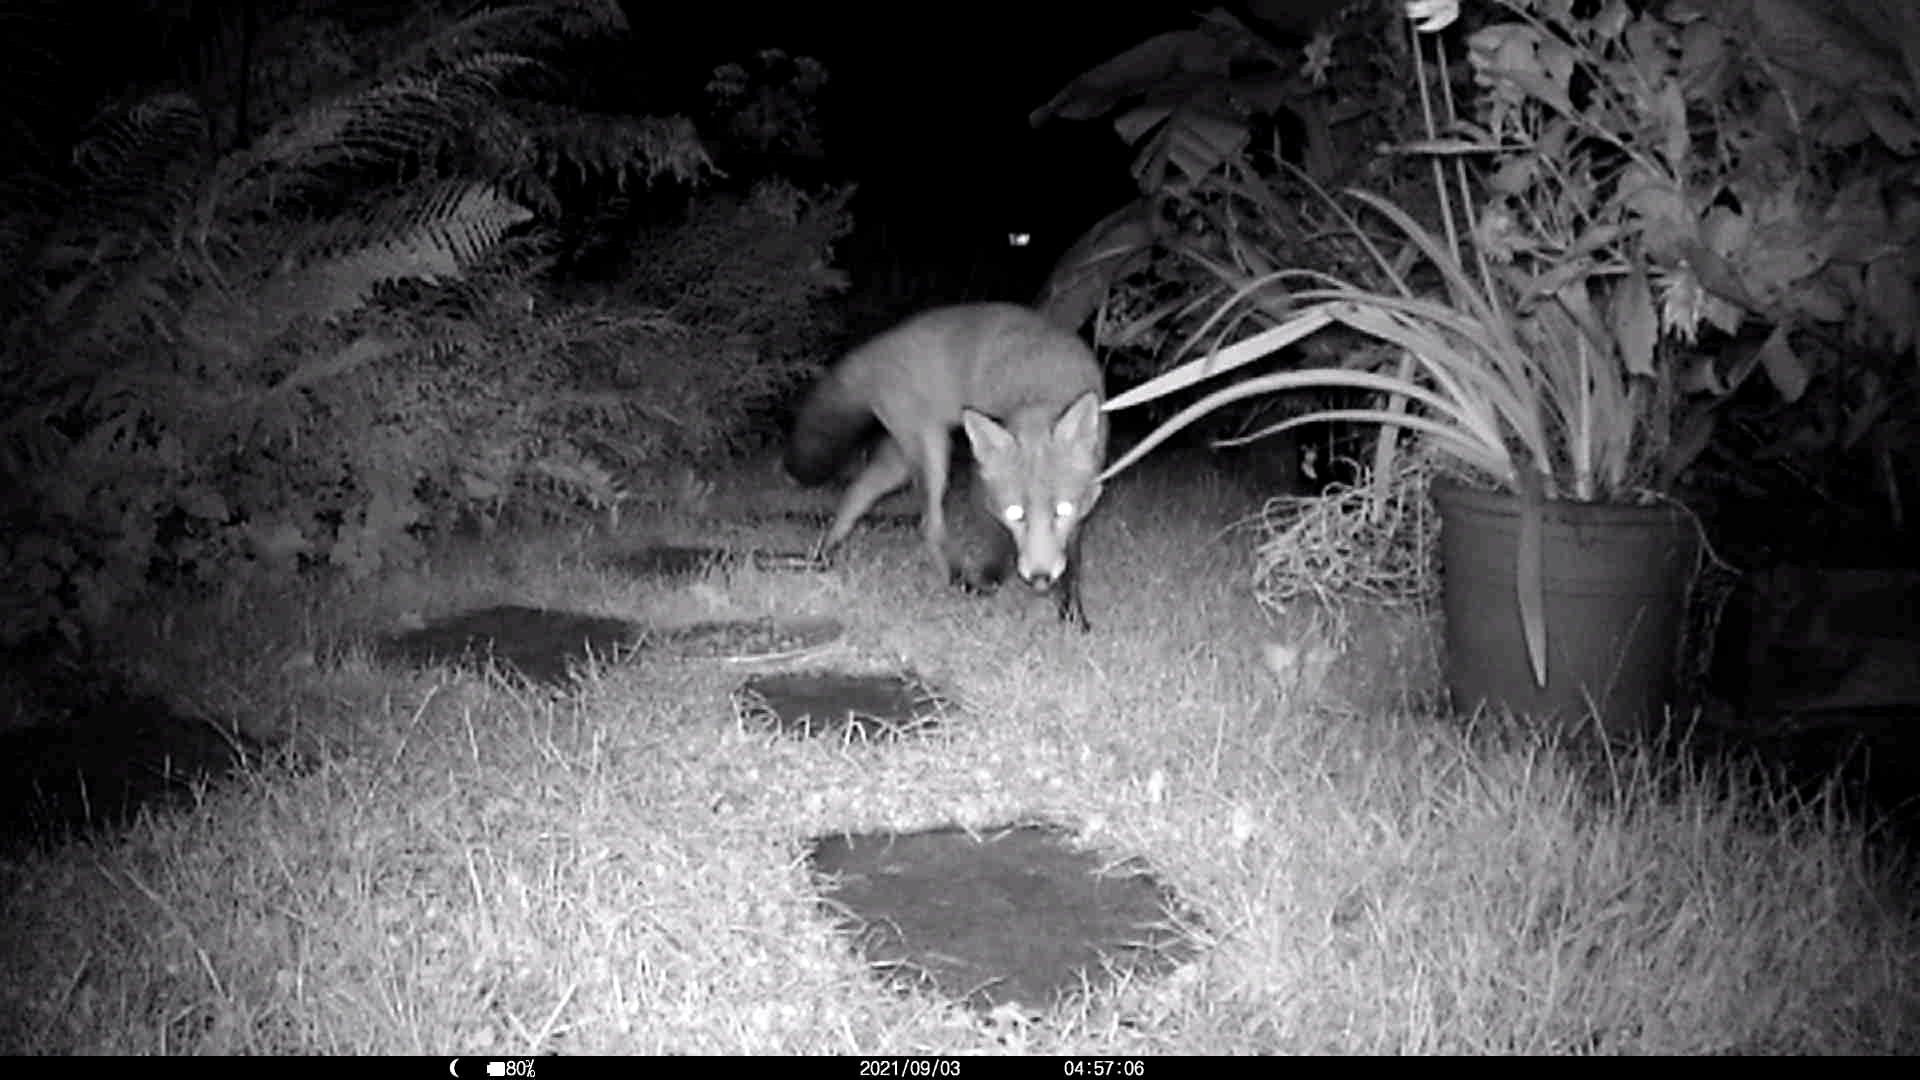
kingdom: Animalia
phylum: Chordata
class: Mammalia
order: Carnivora
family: Canidae
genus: Vulpes
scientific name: Vulpes vulpes
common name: Red fox
